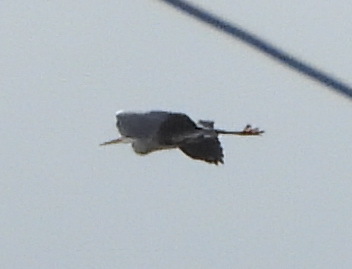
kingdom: Animalia
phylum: Chordata
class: Aves
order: Pelecaniformes
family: Ardeidae
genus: Ardea
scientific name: Ardea cinerea
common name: Grey heron
